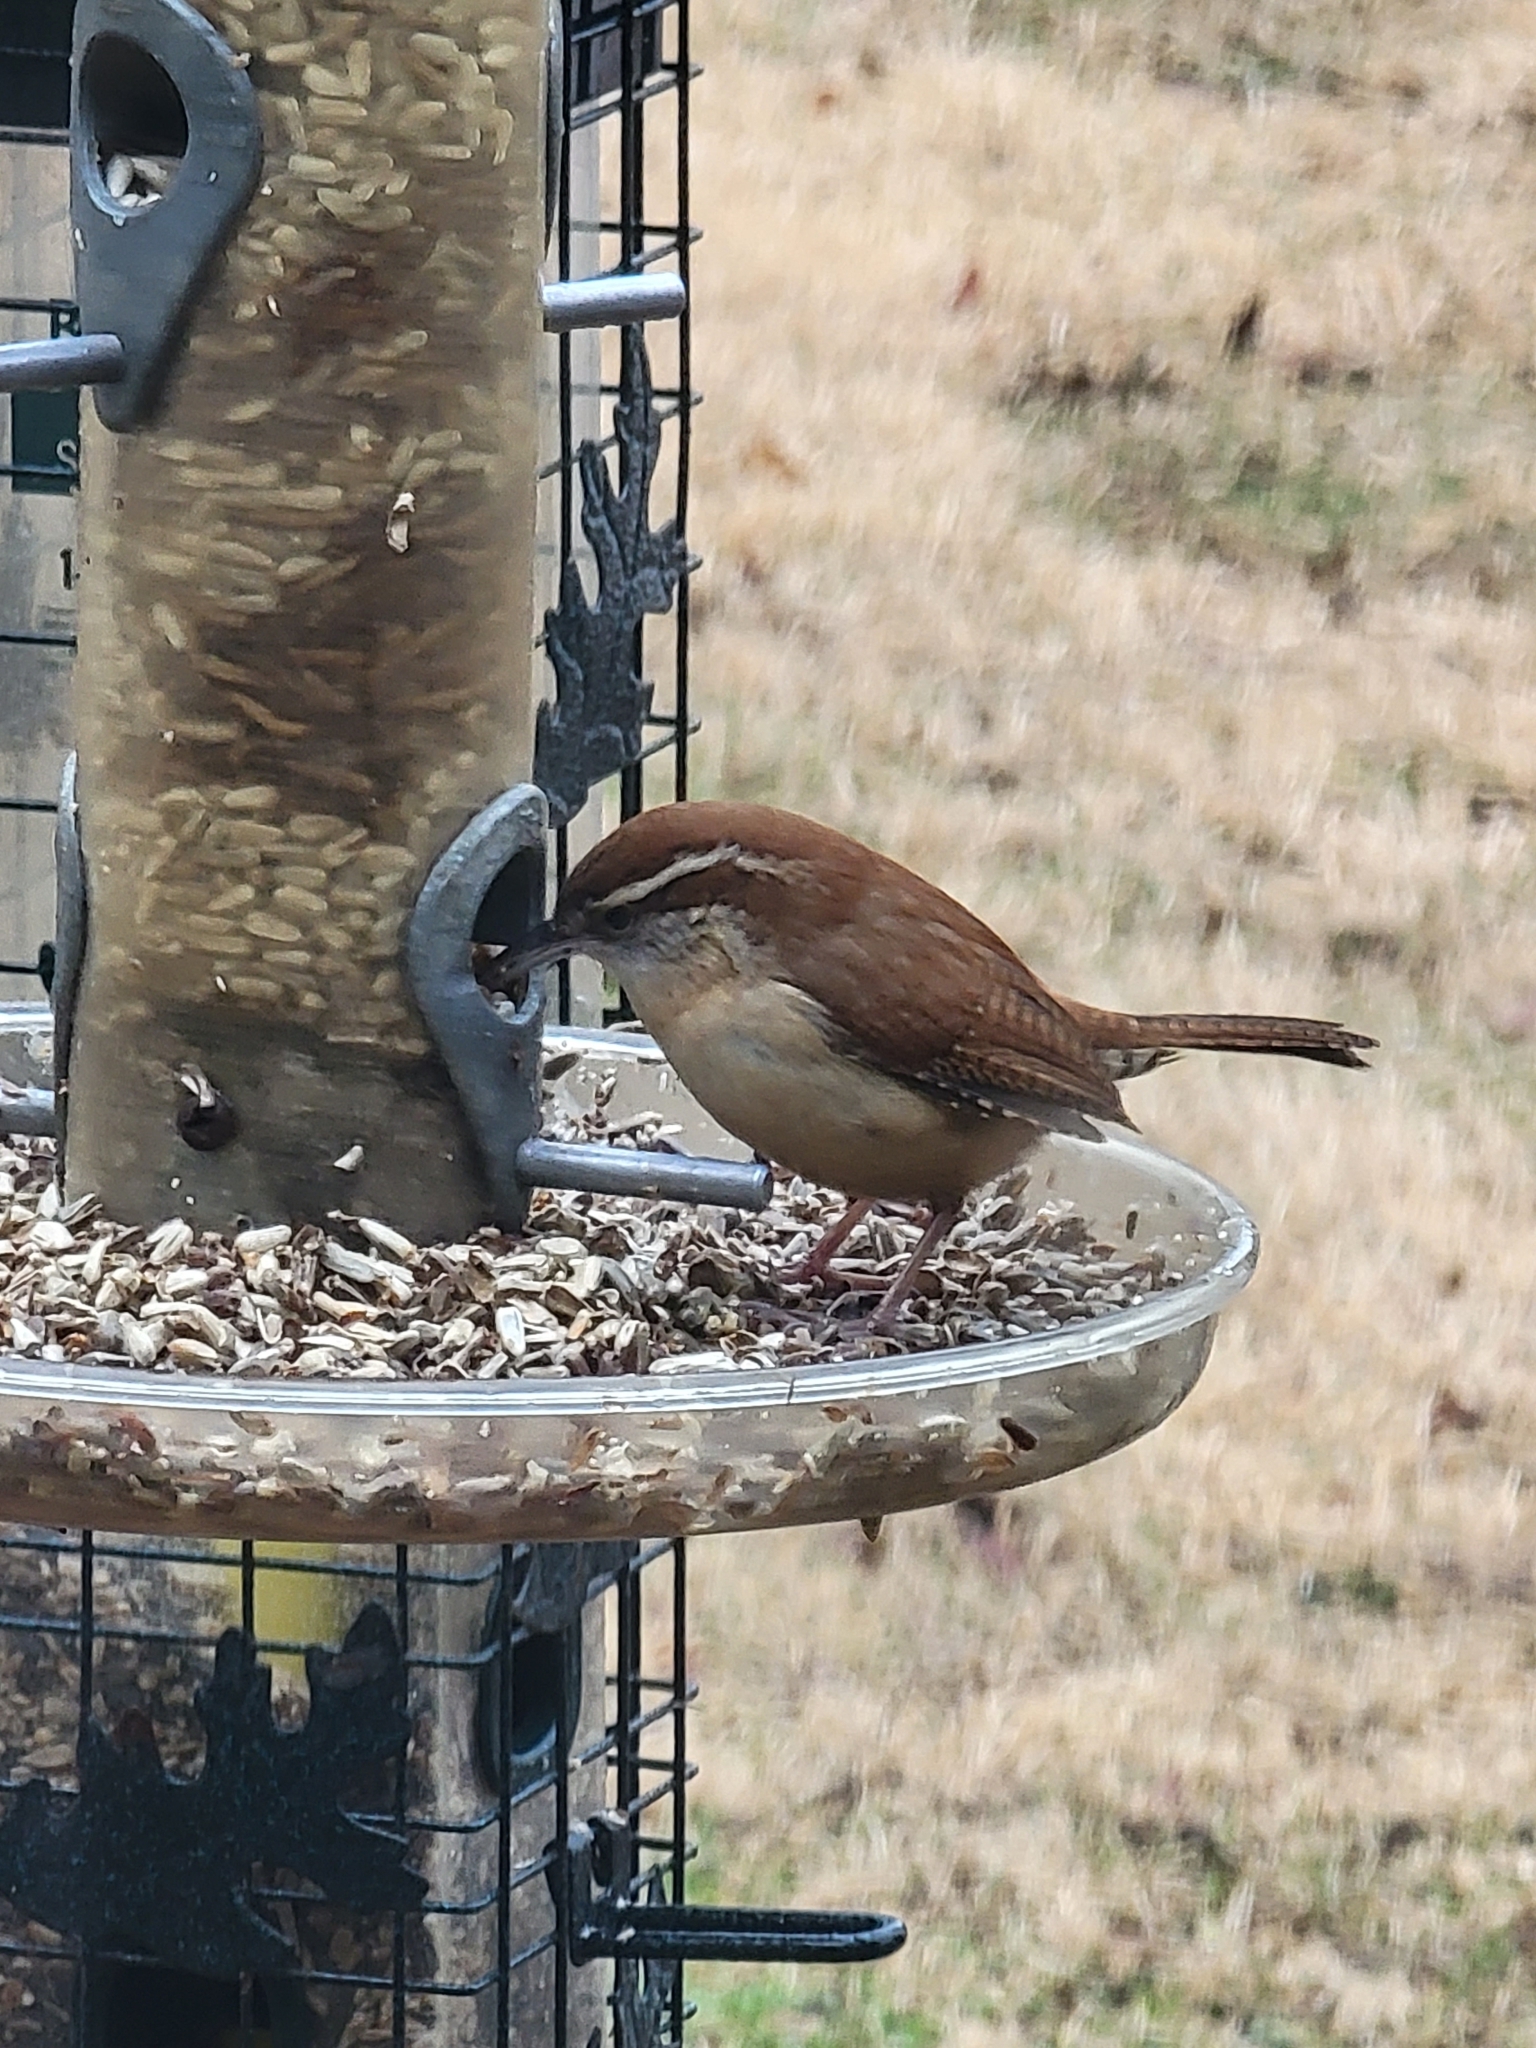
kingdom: Animalia
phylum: Chordata
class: Aves
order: Passeriformes
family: Troglodytidae
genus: Thryothorus
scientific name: Thryothorus ludovicianus
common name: Carolina wren
